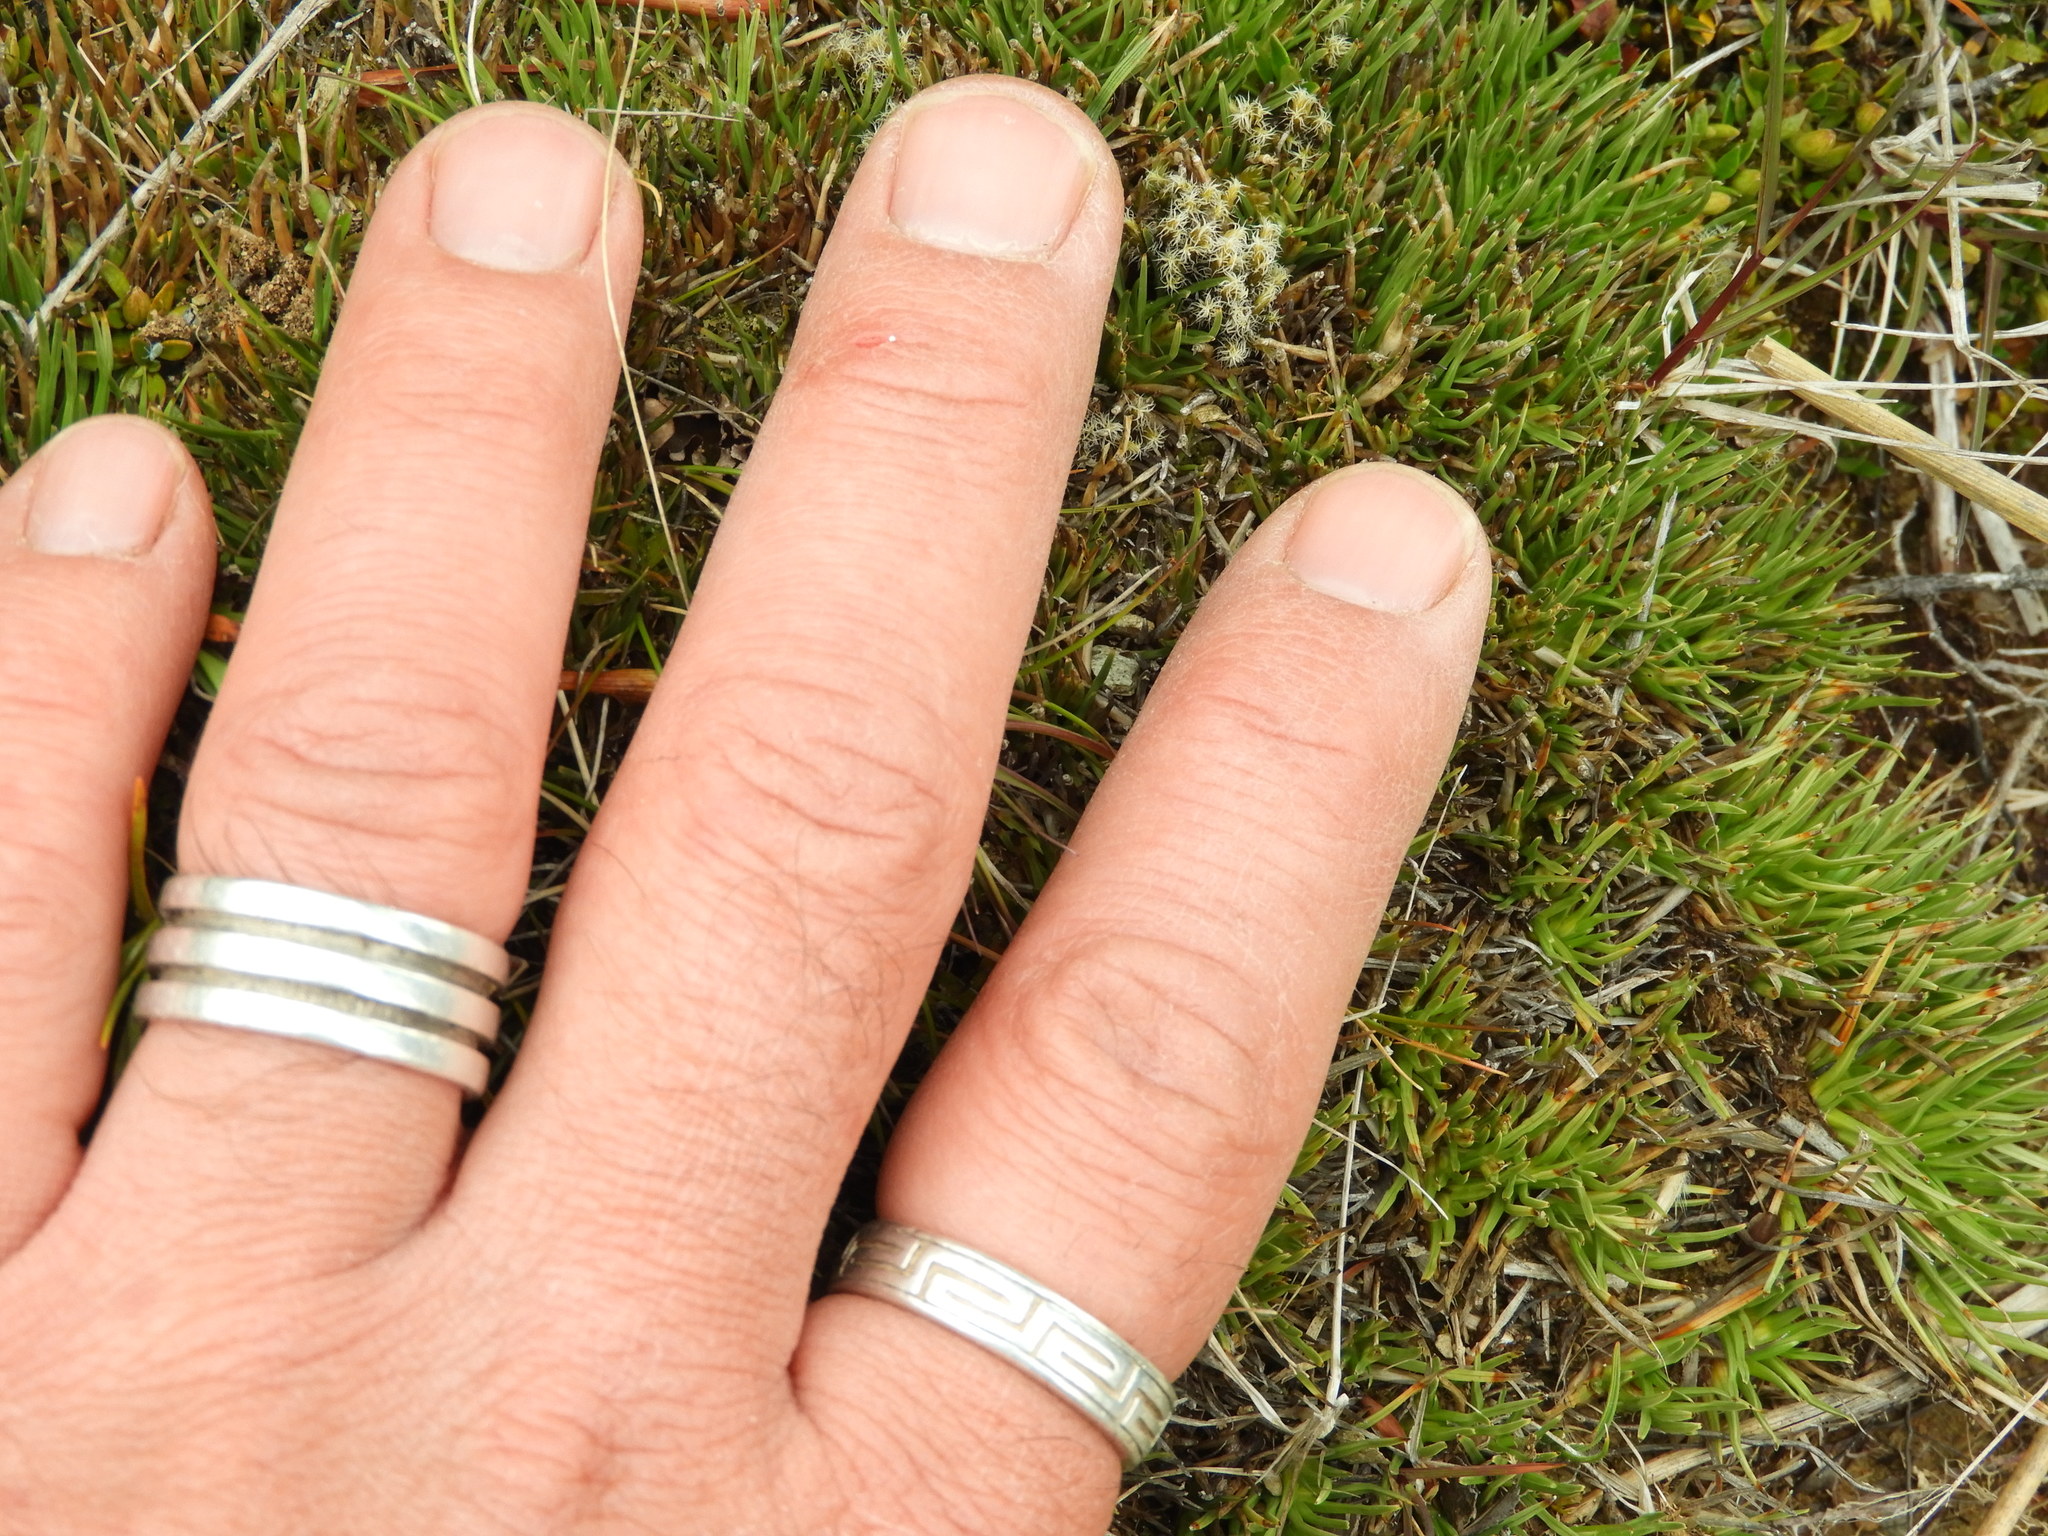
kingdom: Plantae
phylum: Tracheophyta
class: Liliopsida
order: Poales
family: Cyperaceae
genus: Oreobolus
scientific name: Oreobolus pectinatus
